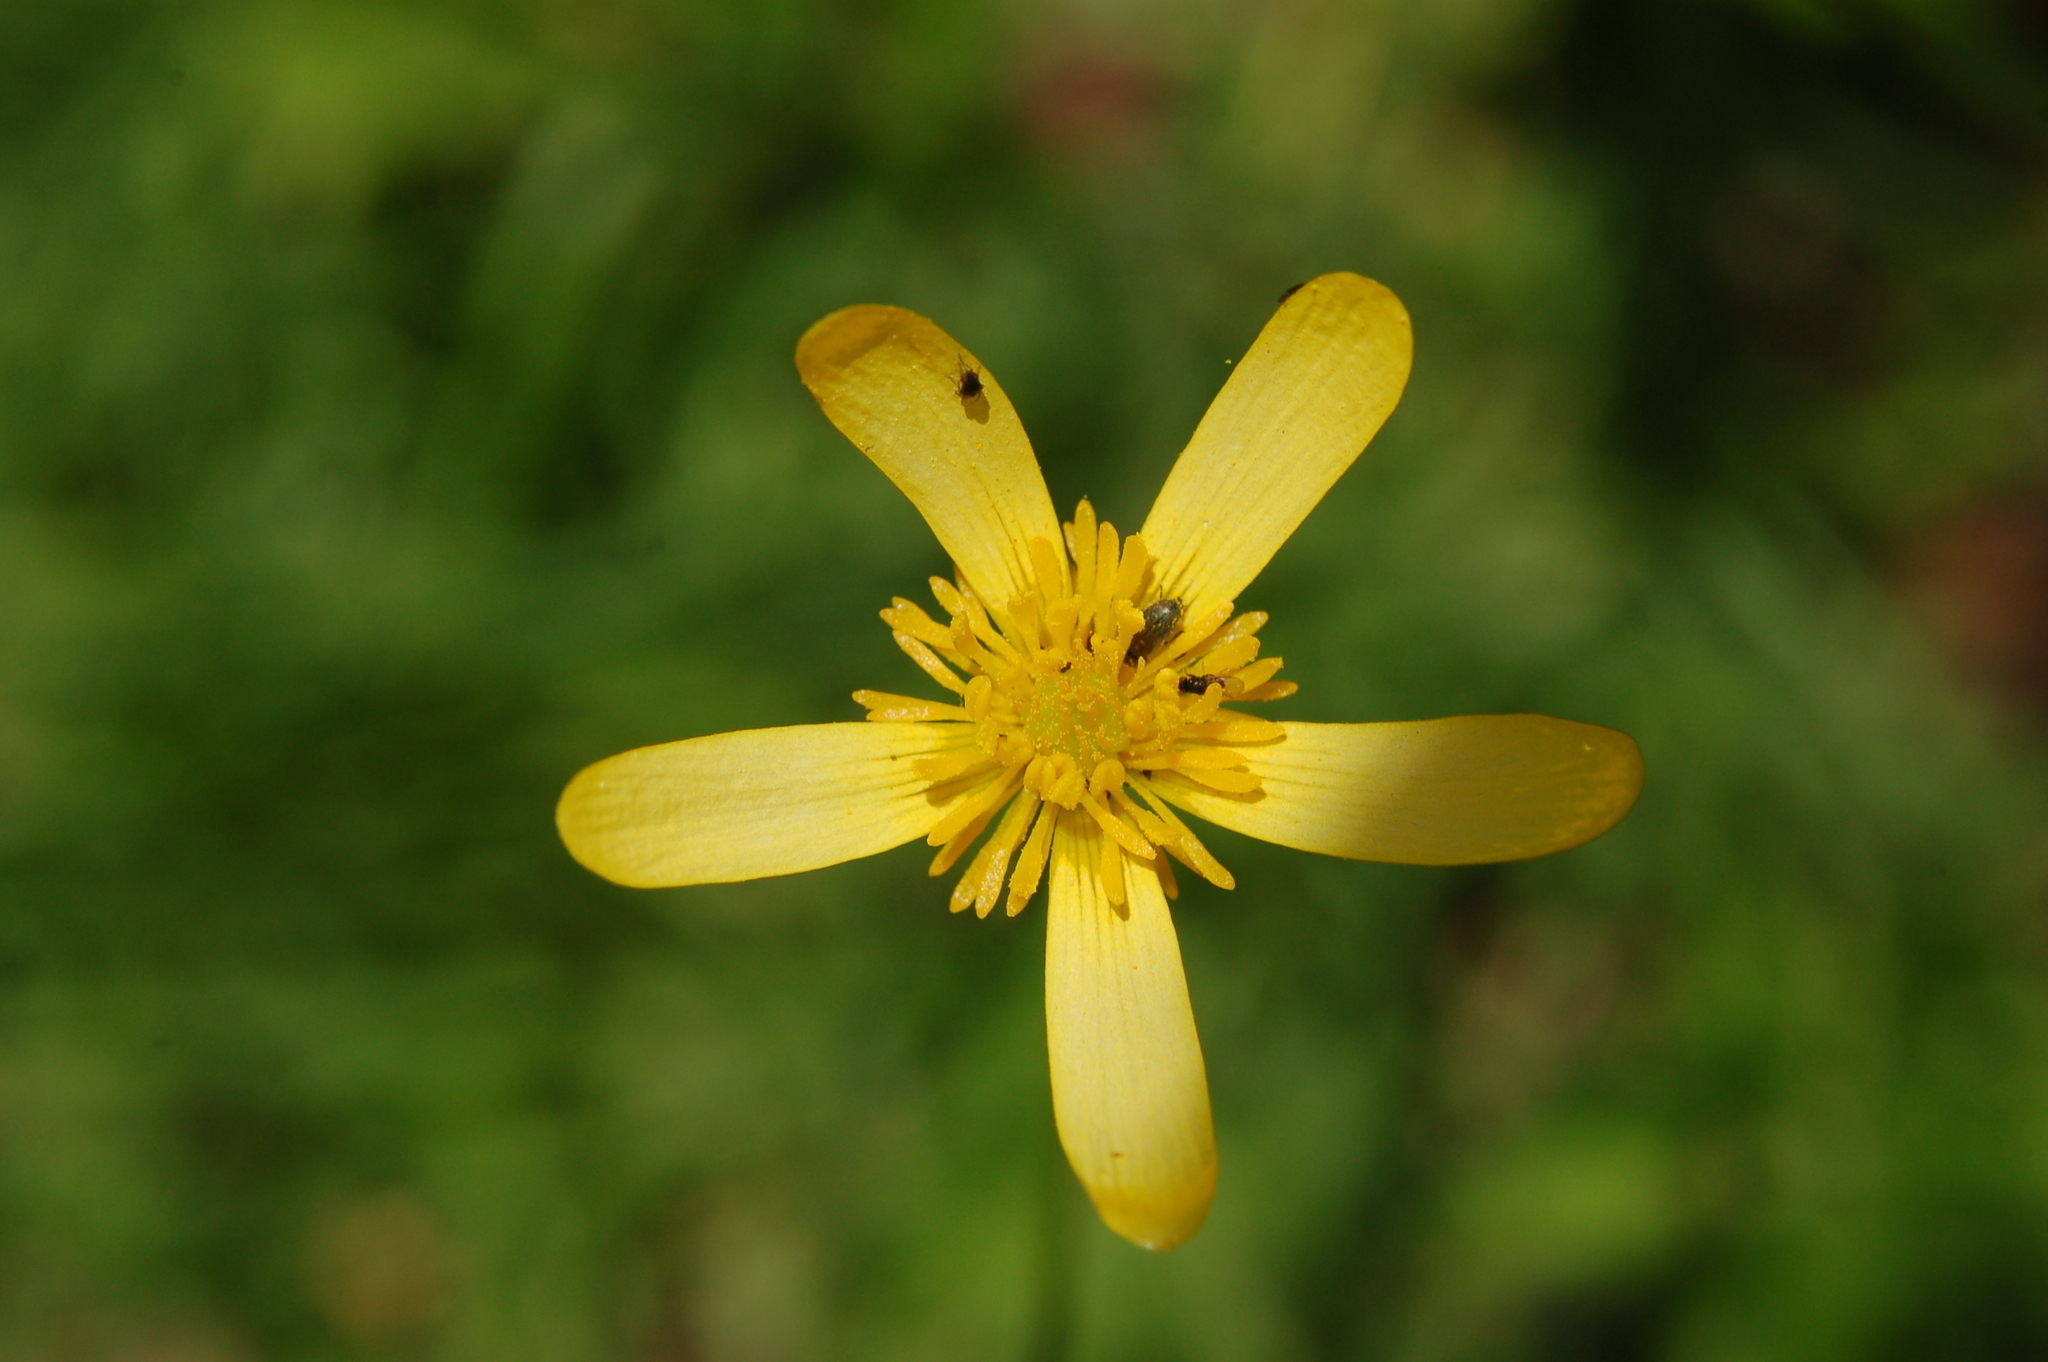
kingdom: Plantae
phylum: Tracheophyta
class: Magnoliopsida
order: Ranunculales
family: Ranunculaceae
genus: Ranunculus
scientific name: Ranunculus petiolaris
